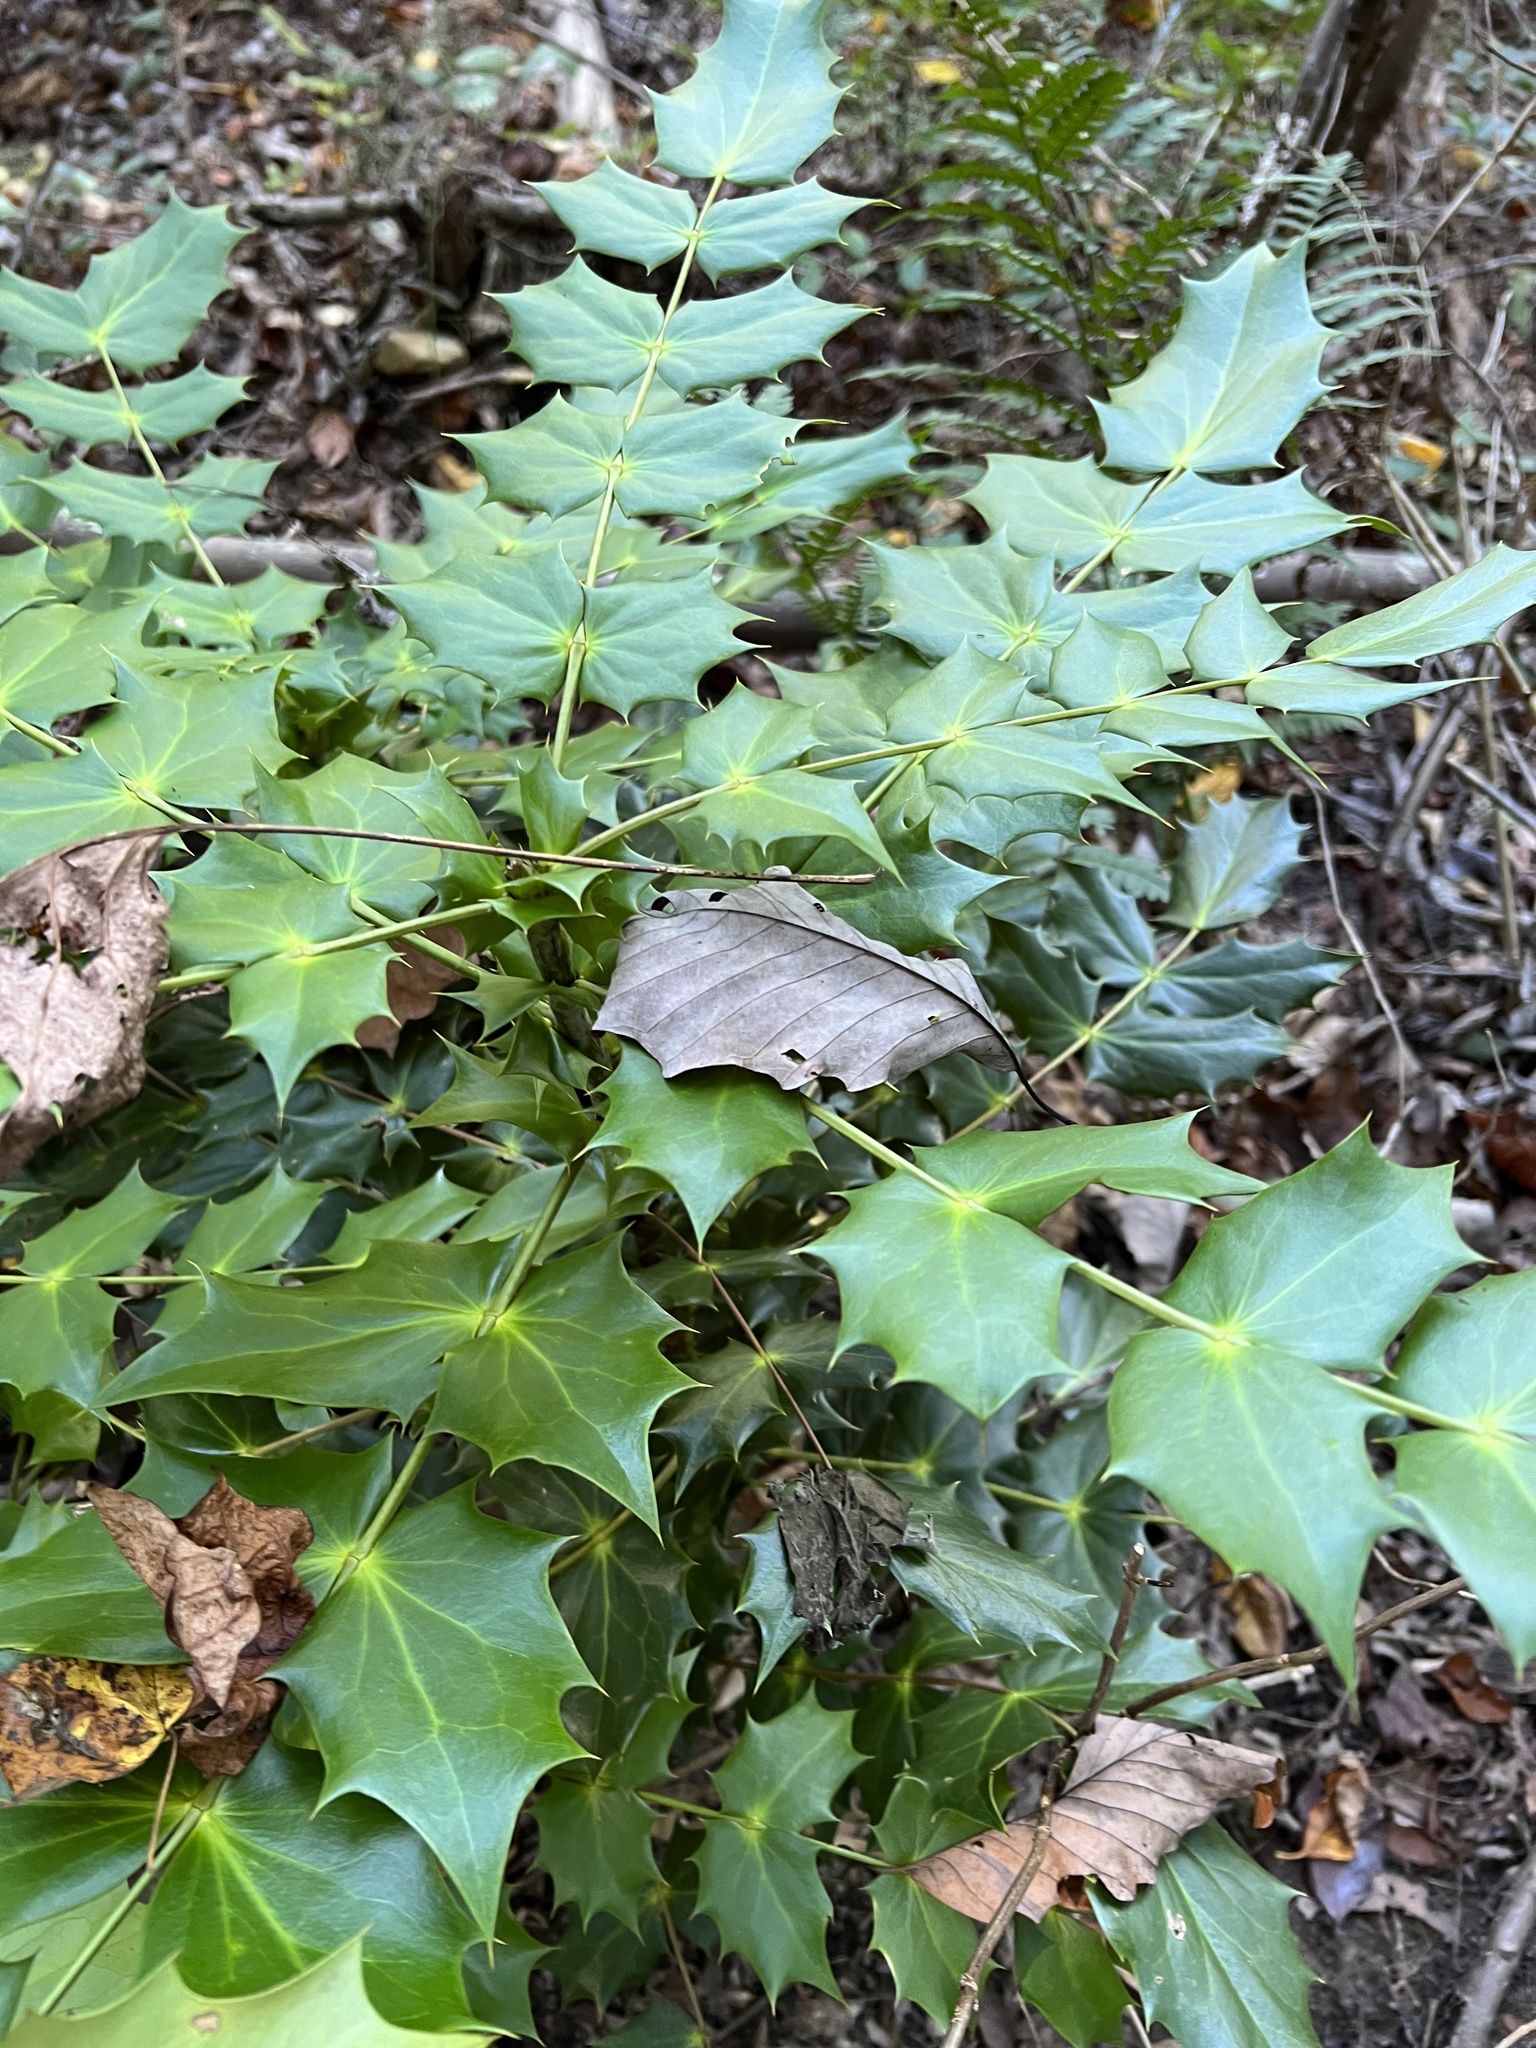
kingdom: Plantae
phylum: Tracheophyta
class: Magnoliopsida
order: Ranunculales
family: Berberidaceae
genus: Mahonia
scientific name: Mahonia bealei
